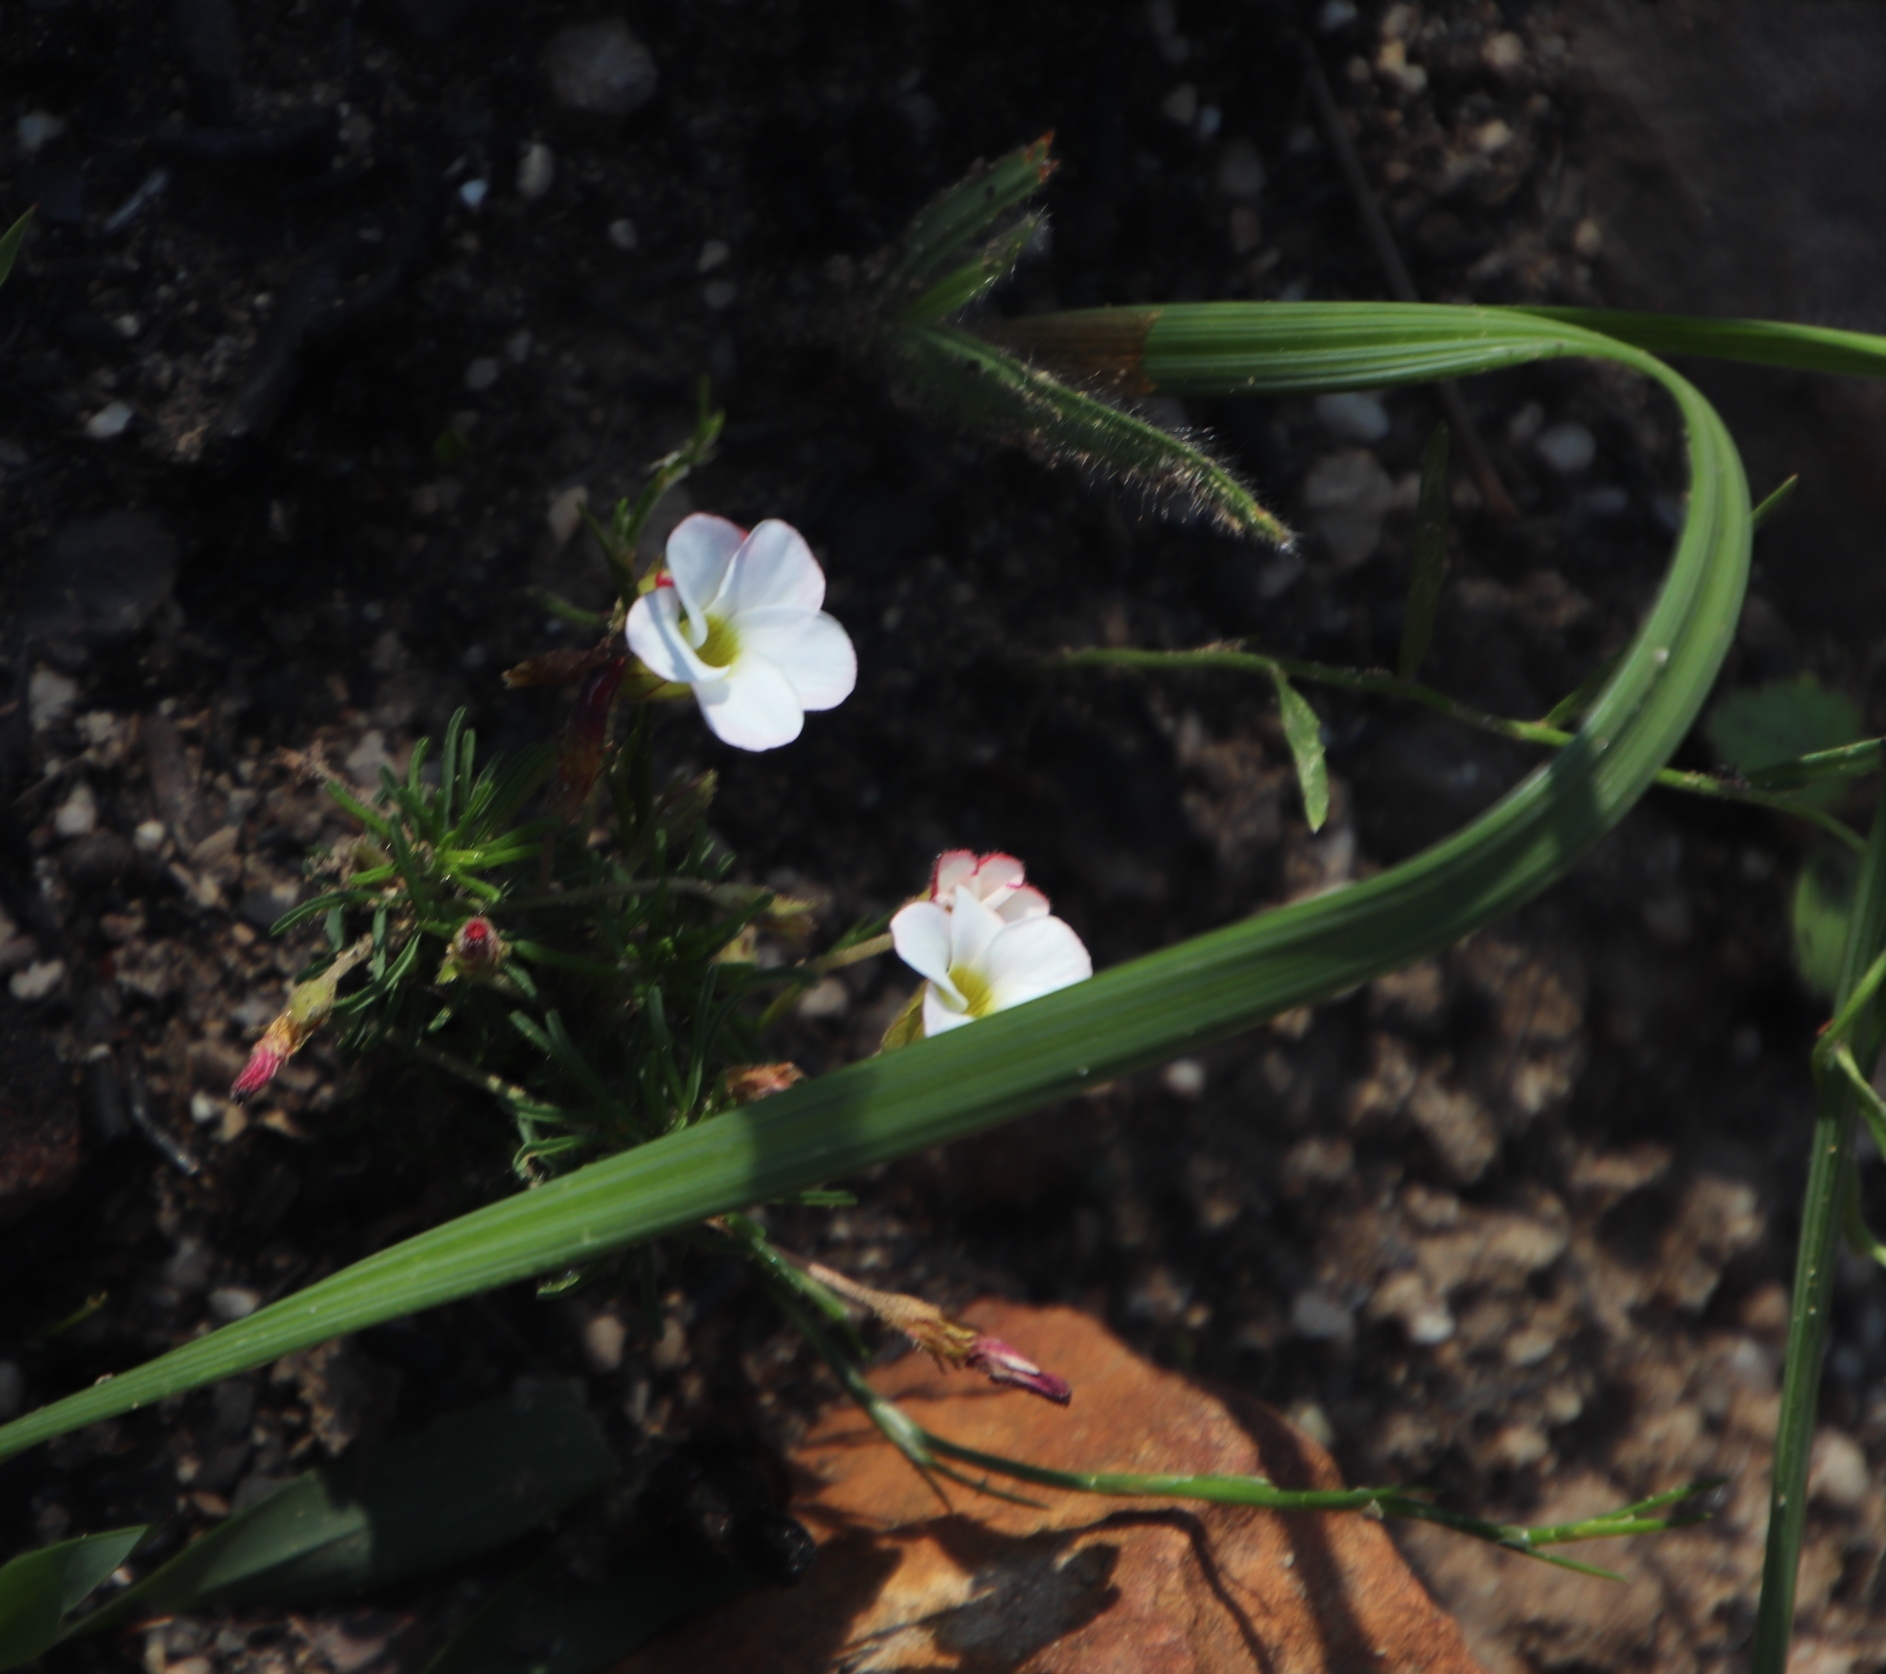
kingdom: Plantae
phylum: Tracheophyta
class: Magnoliopsida
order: Oxalidales
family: Oxalidaceae
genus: Oxalis
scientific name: Oxalis tenuifolia
